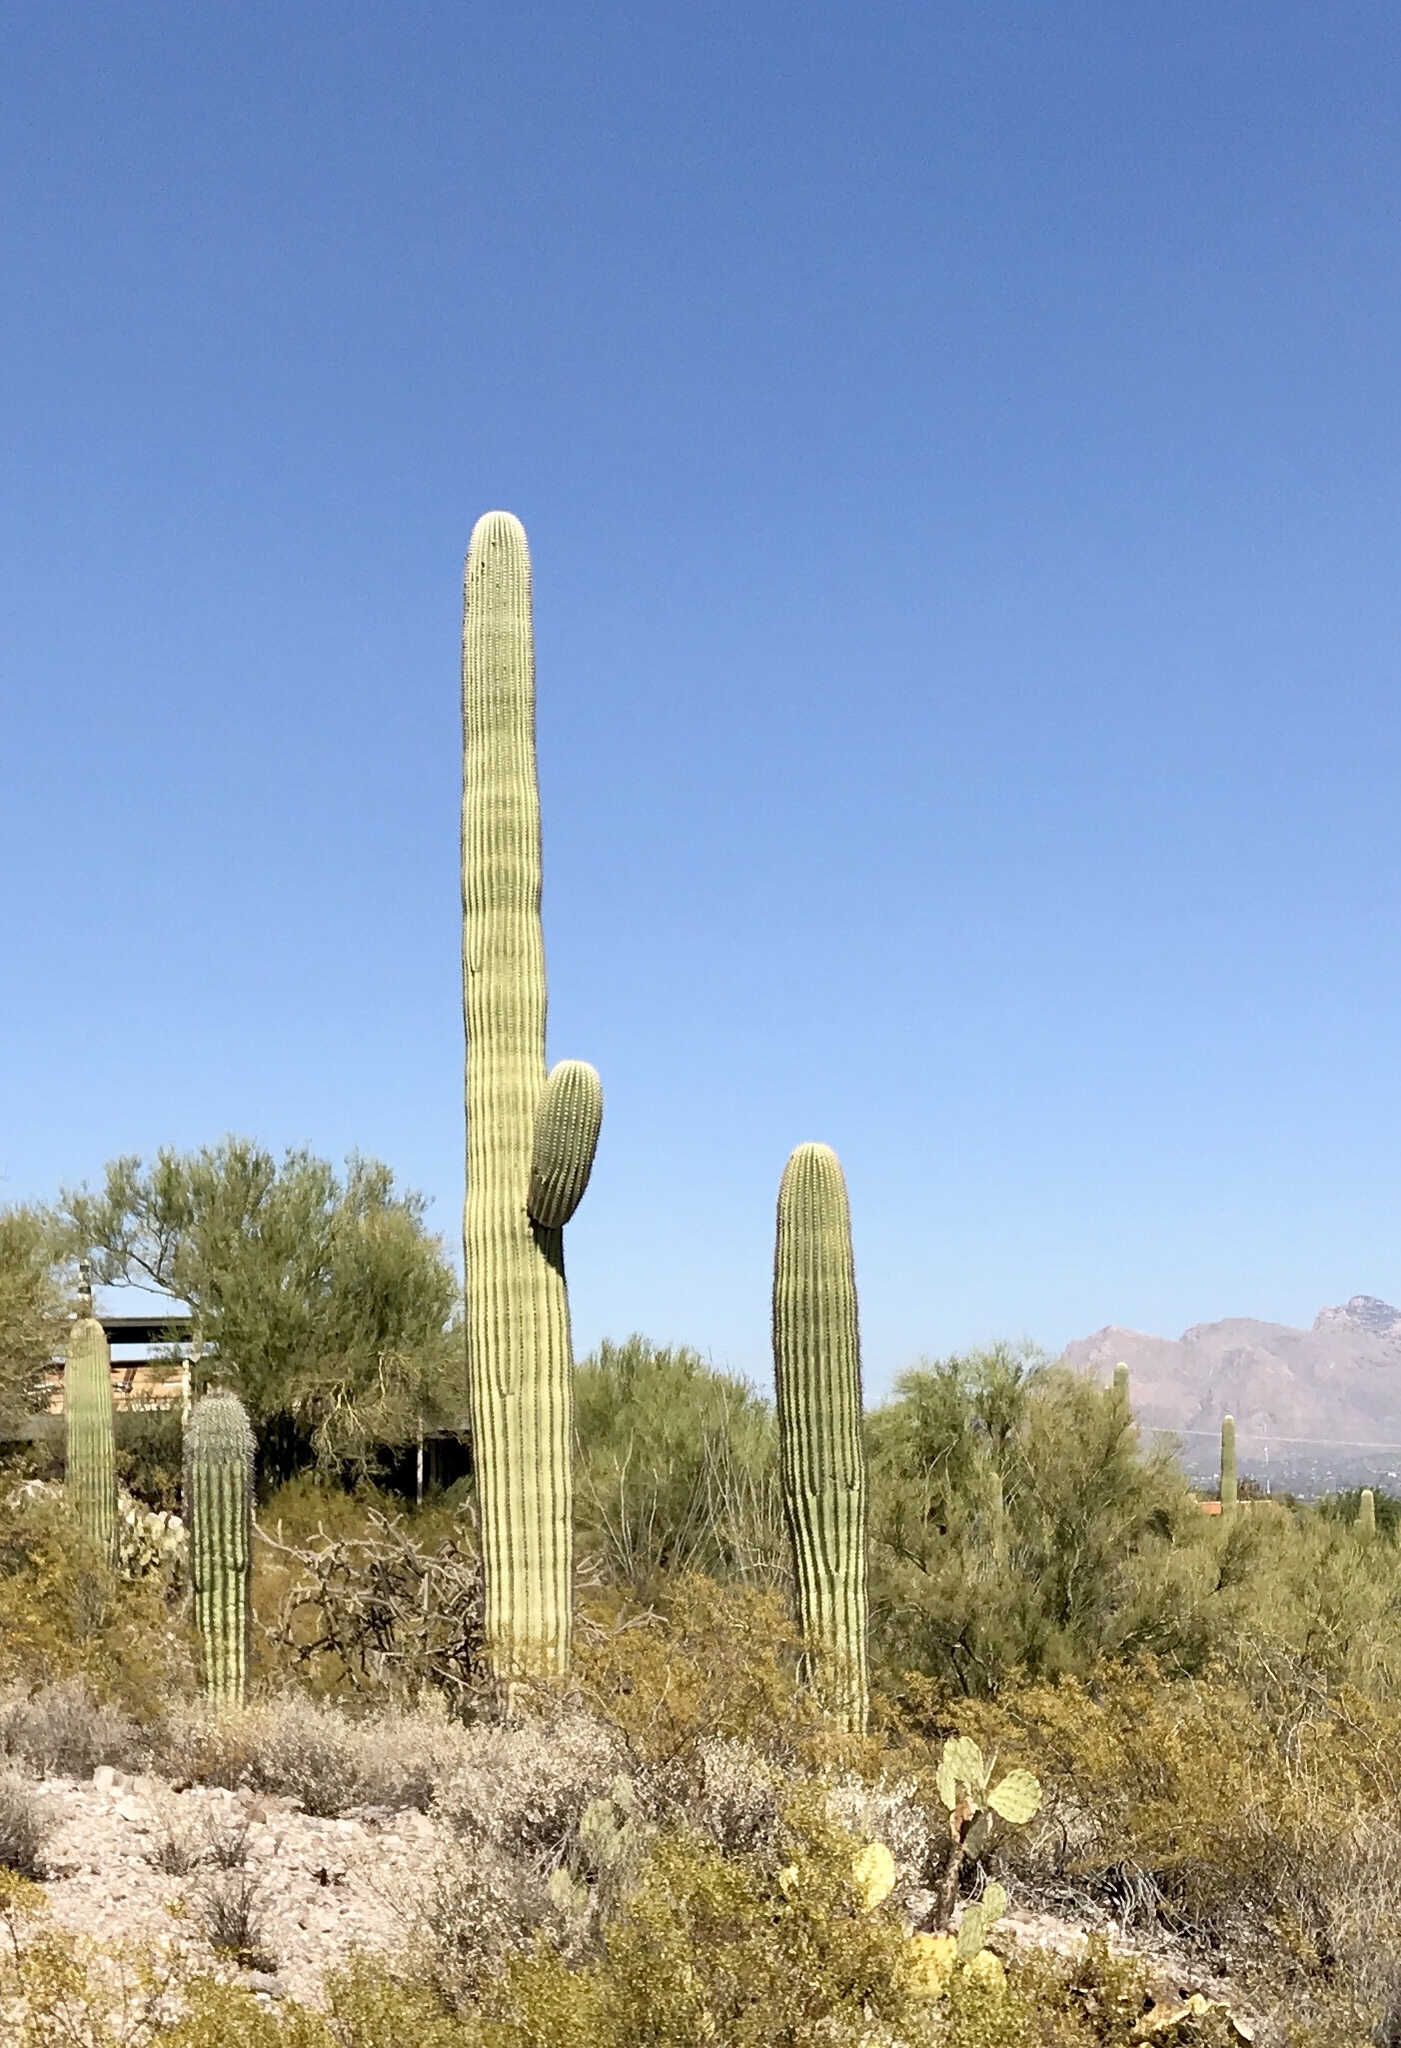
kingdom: Plantae
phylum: Tracheophyta
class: Magnoliopsida
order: Caryophyllales
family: Cactaceae
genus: Carnegiea
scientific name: Carnegiea gigantea
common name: Saguaro
